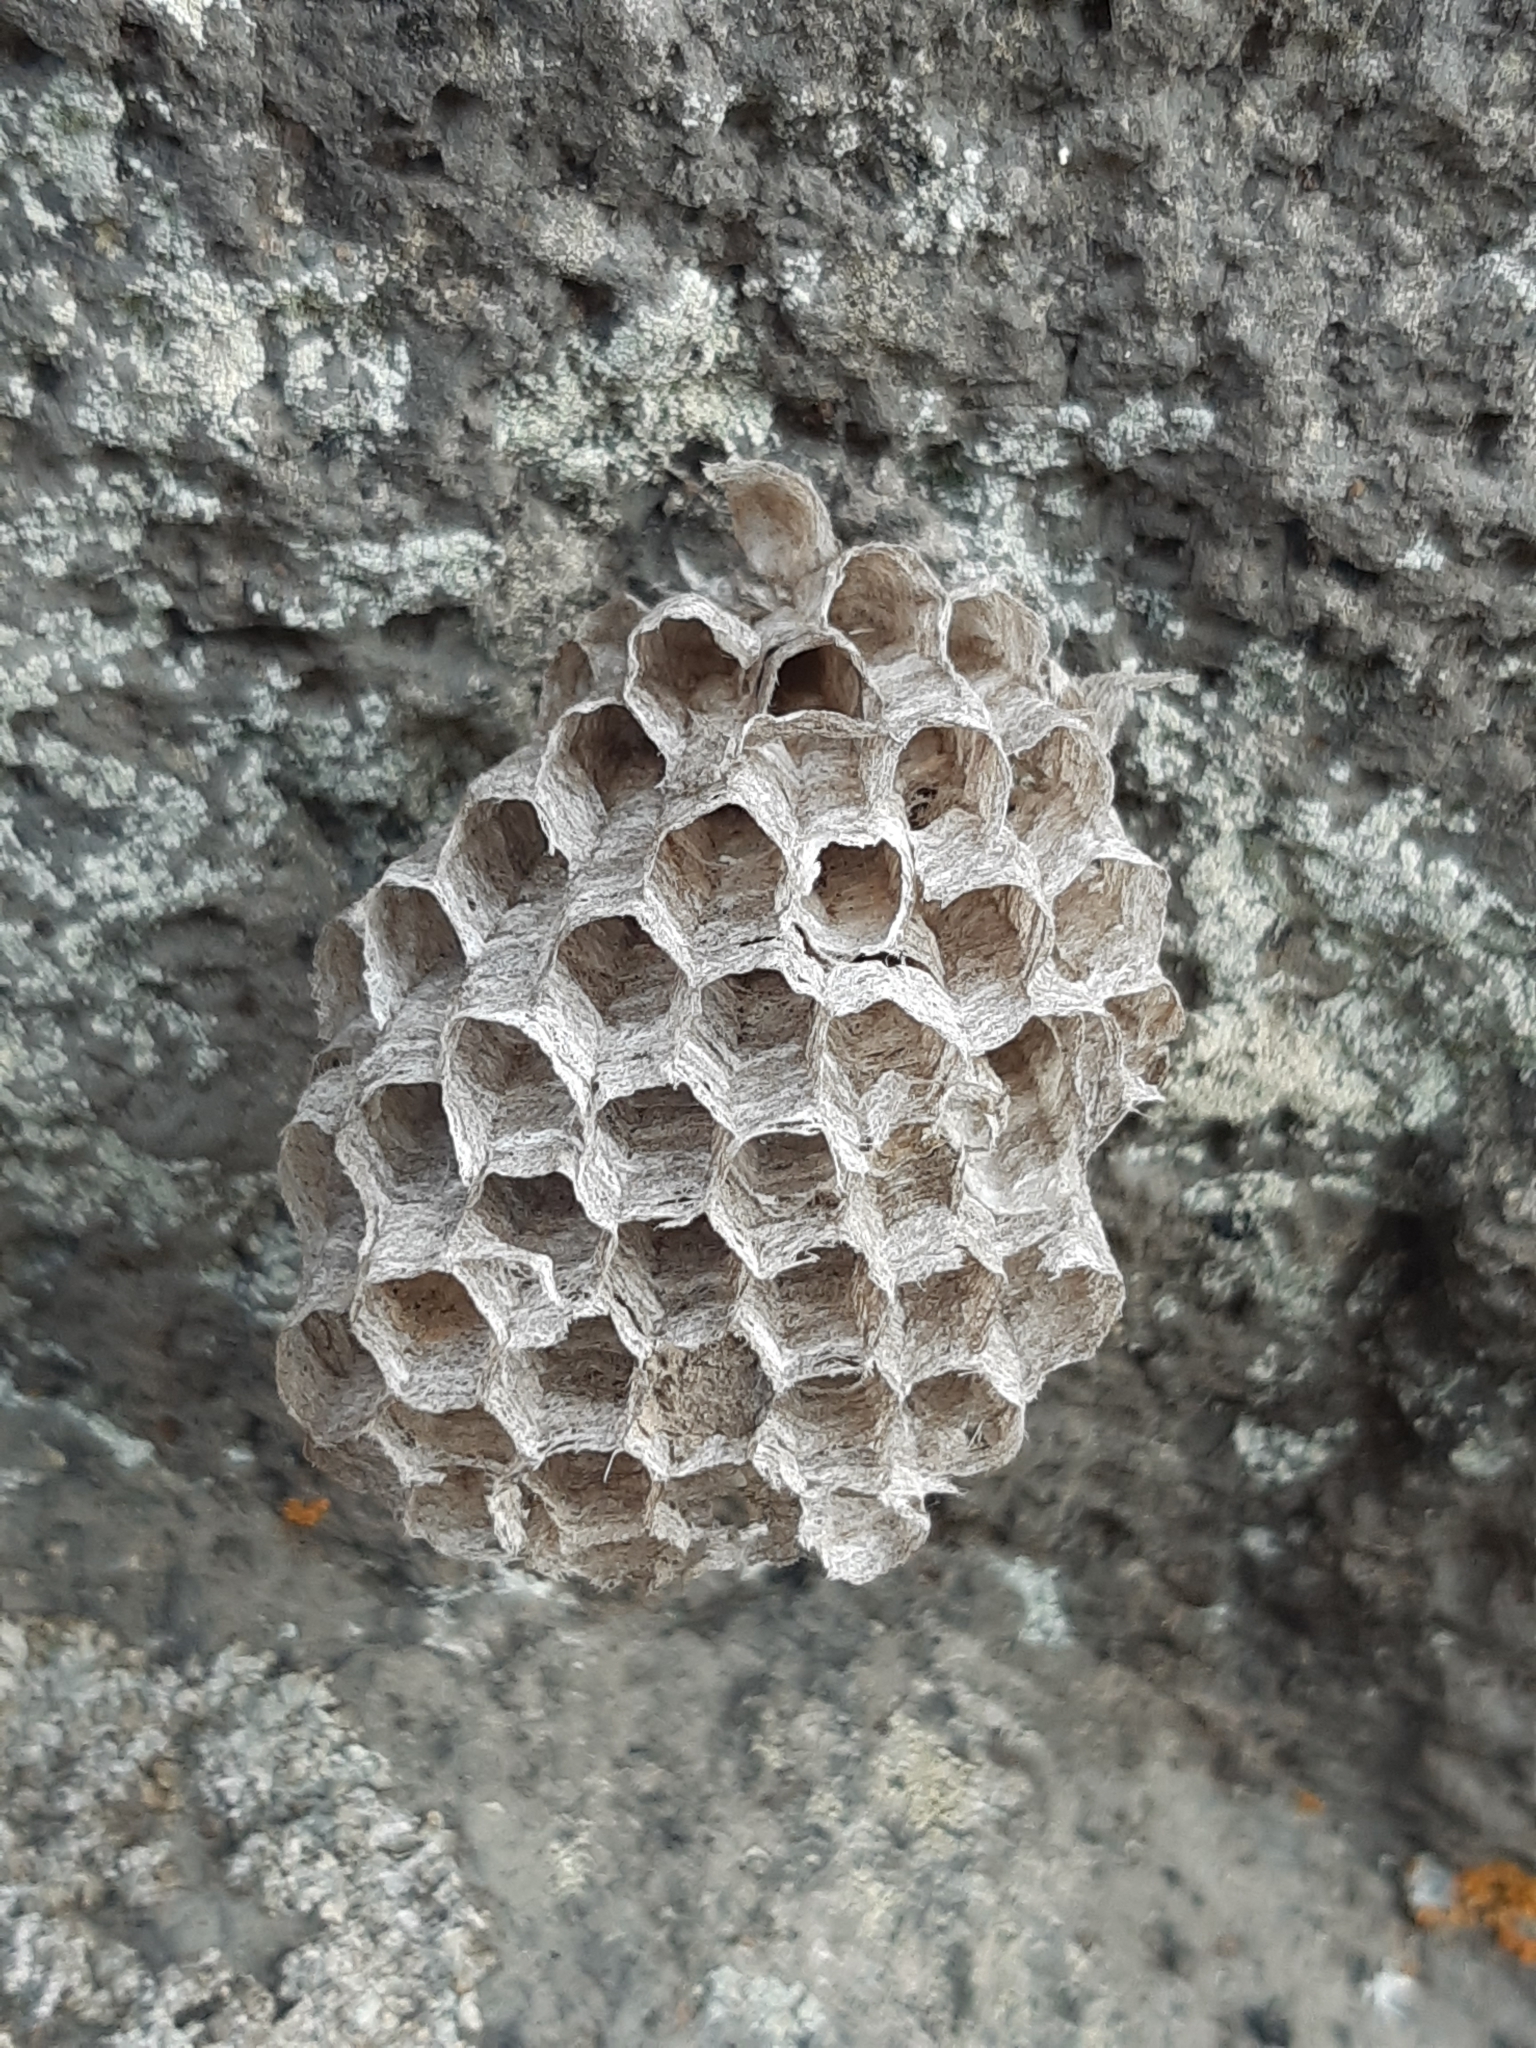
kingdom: Animalia
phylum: Arthropoda
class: Insecta
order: Hymenoptera
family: Eumenidae
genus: Polistes
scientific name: Polistes
